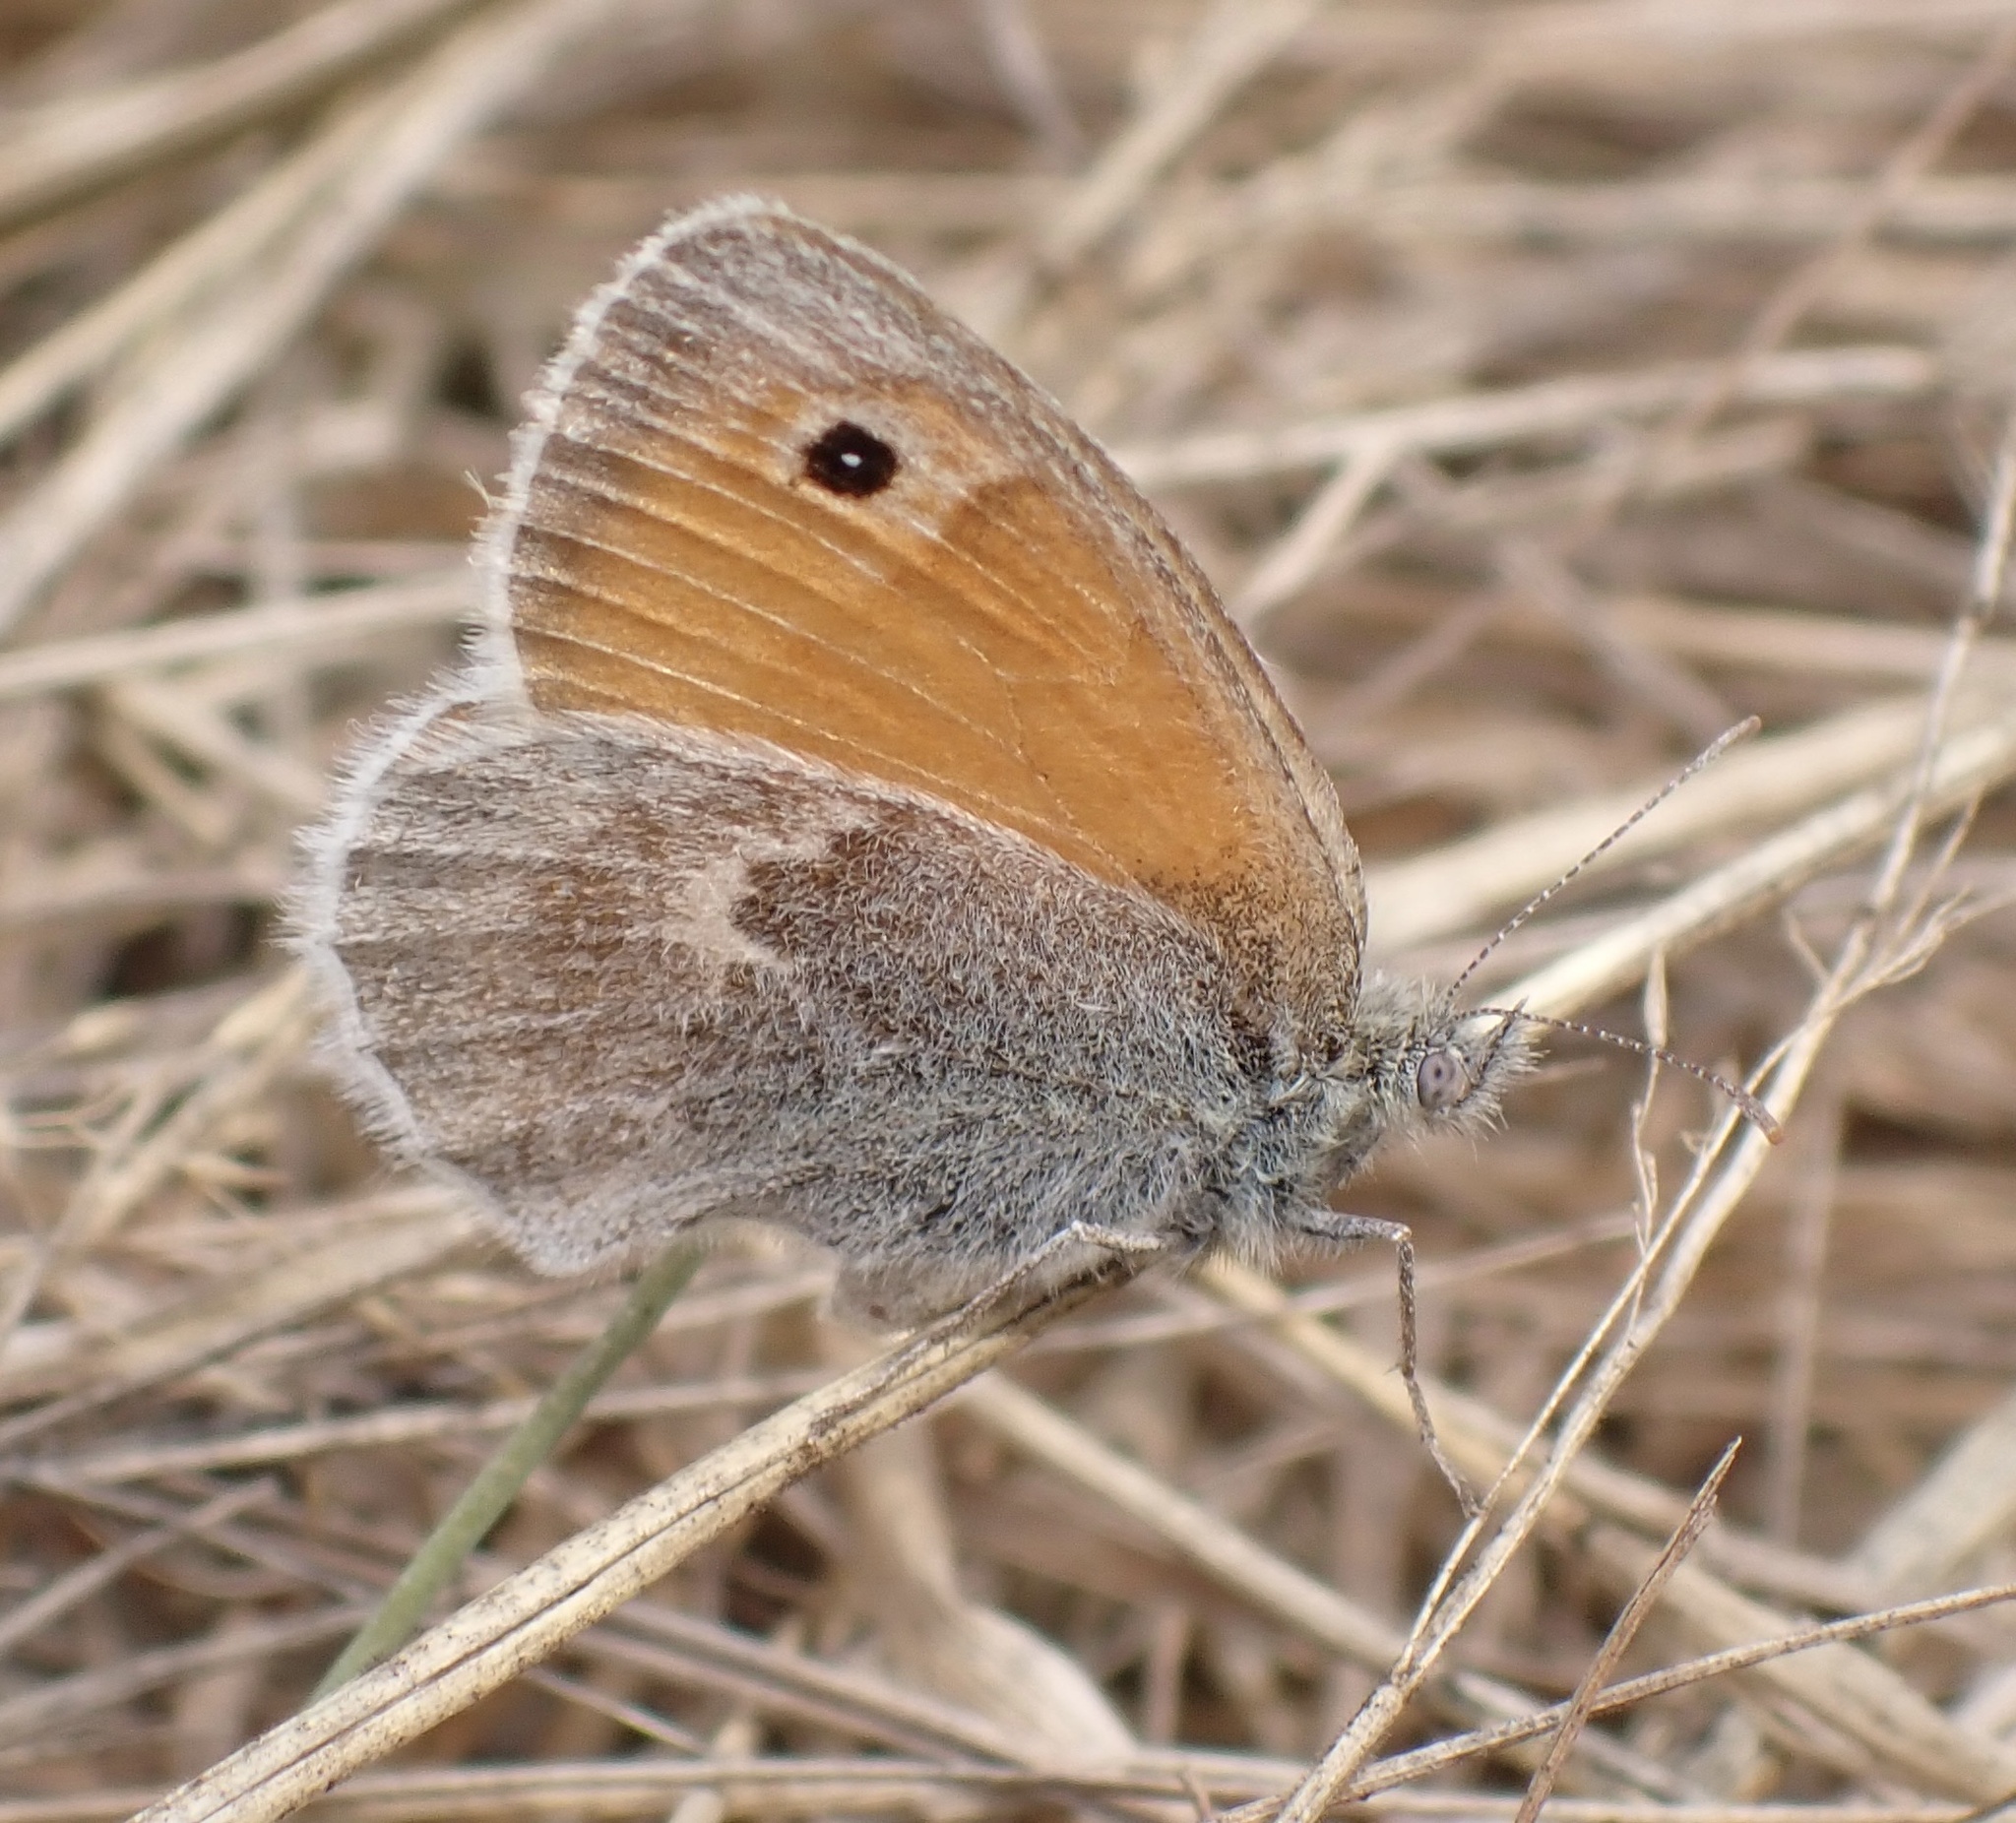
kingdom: Animalia
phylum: Arthropoda
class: Insecta
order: Lepidoptera
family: Nymphalidae
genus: Coenonympha
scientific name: Coenonympha pamphilus
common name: Small heath
